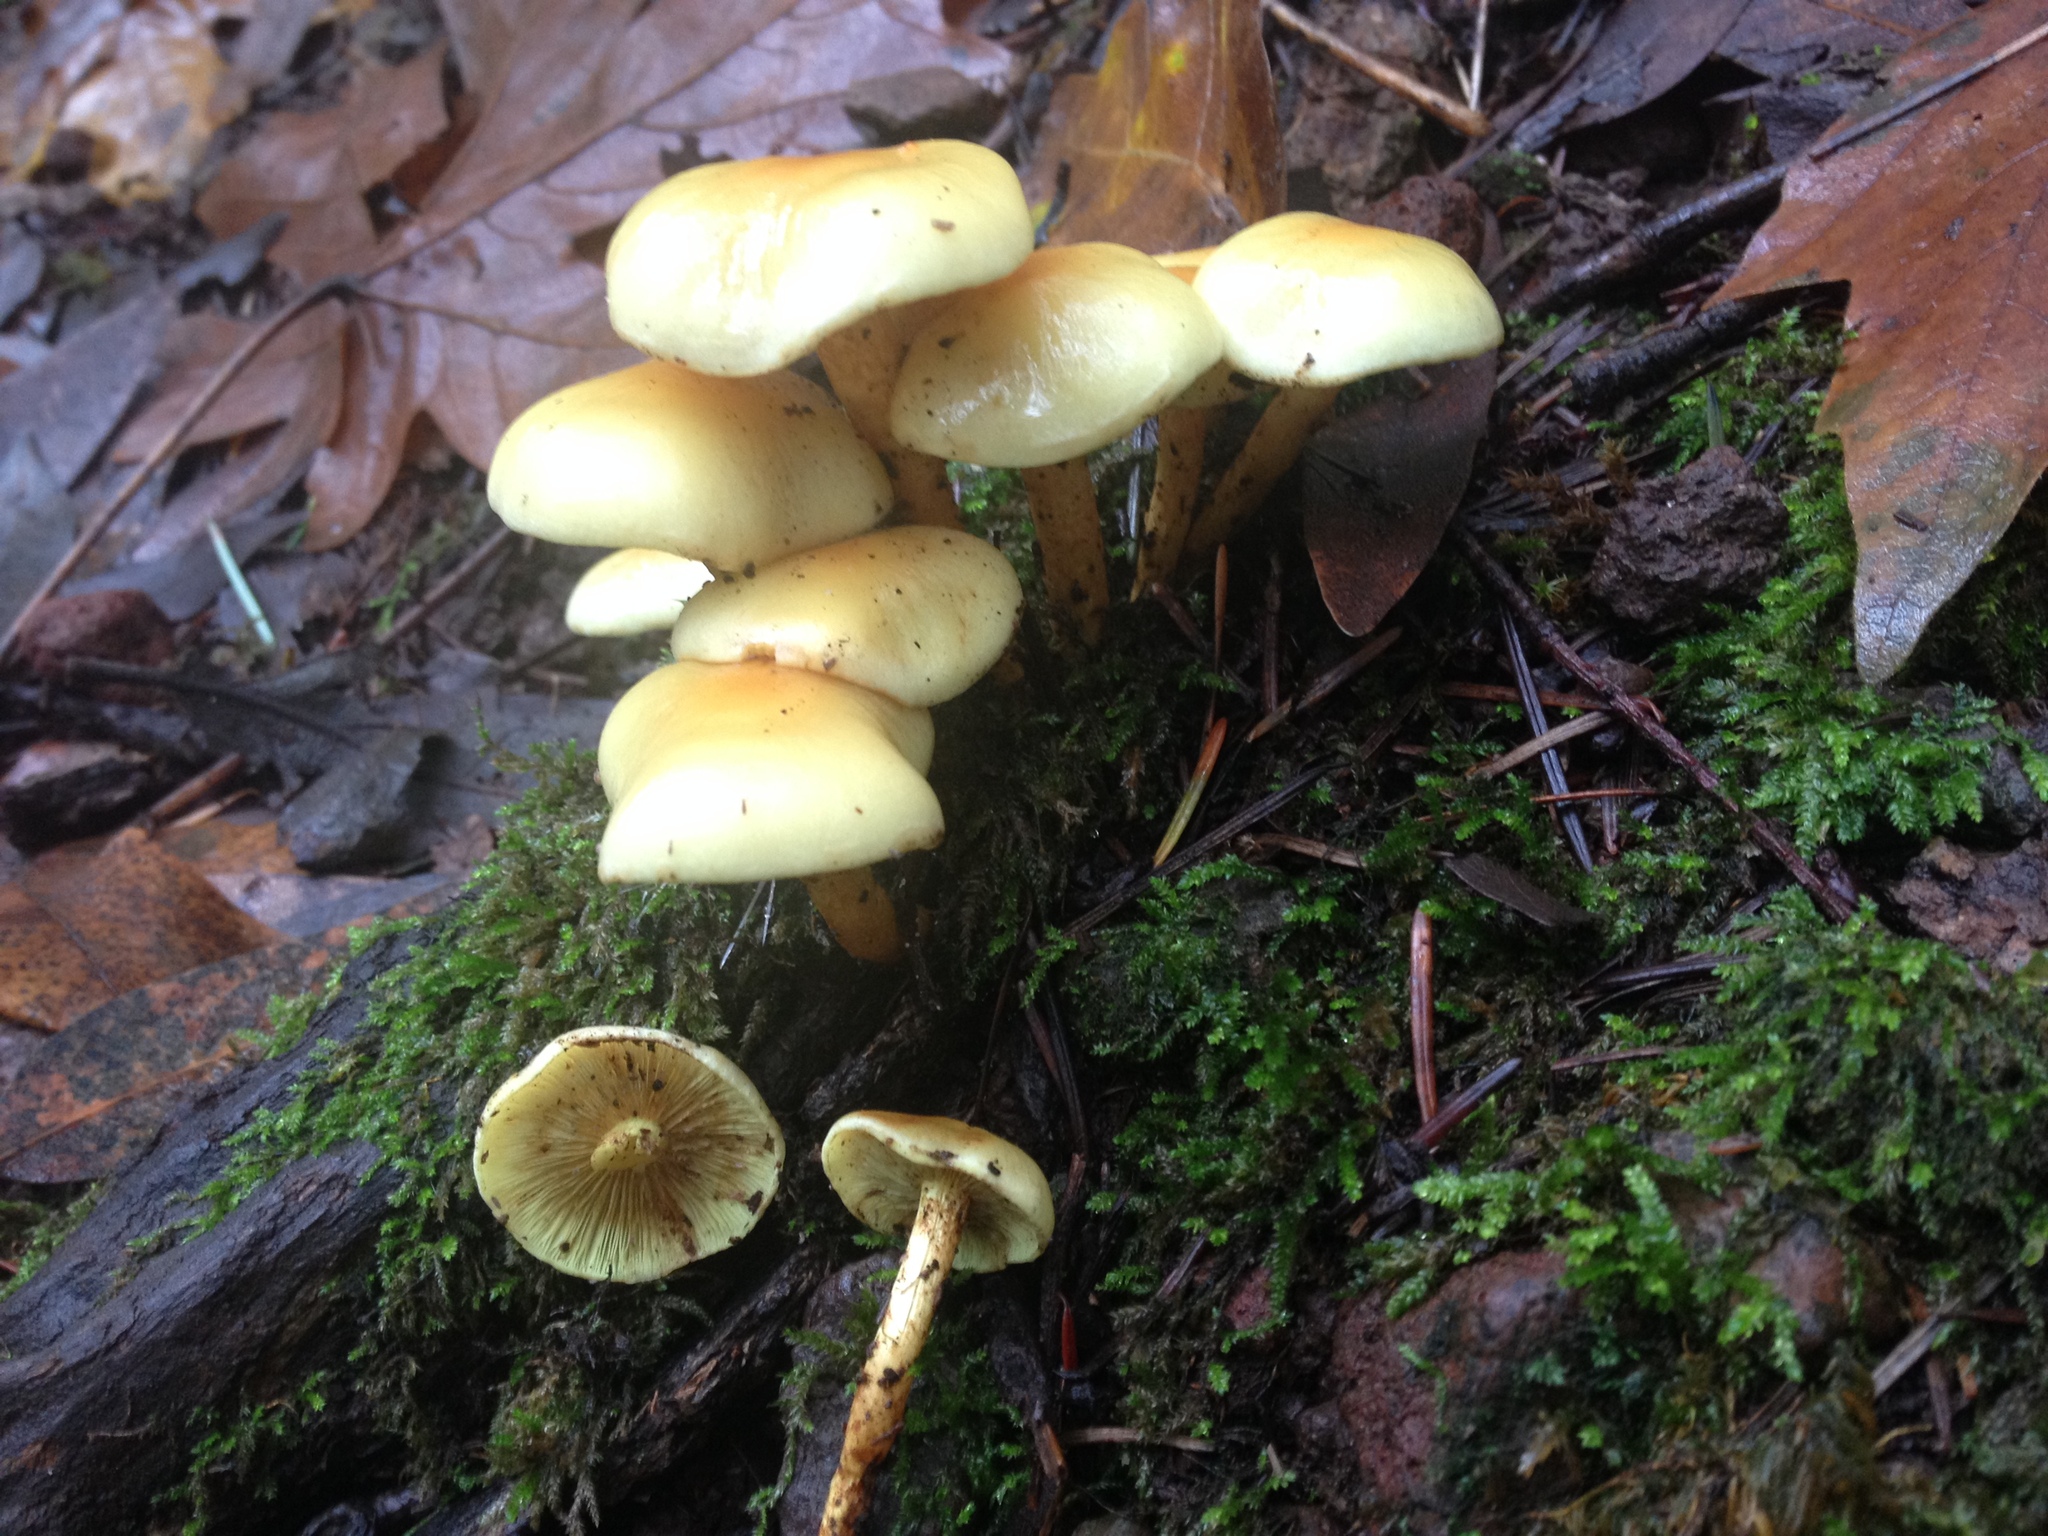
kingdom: Fungi
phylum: Basidiomycota
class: Agaricomycetes
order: Agaricales
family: Strophariaceae
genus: Hypholoma
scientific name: Hypholoma fasciculare
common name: Sulphur tuft
